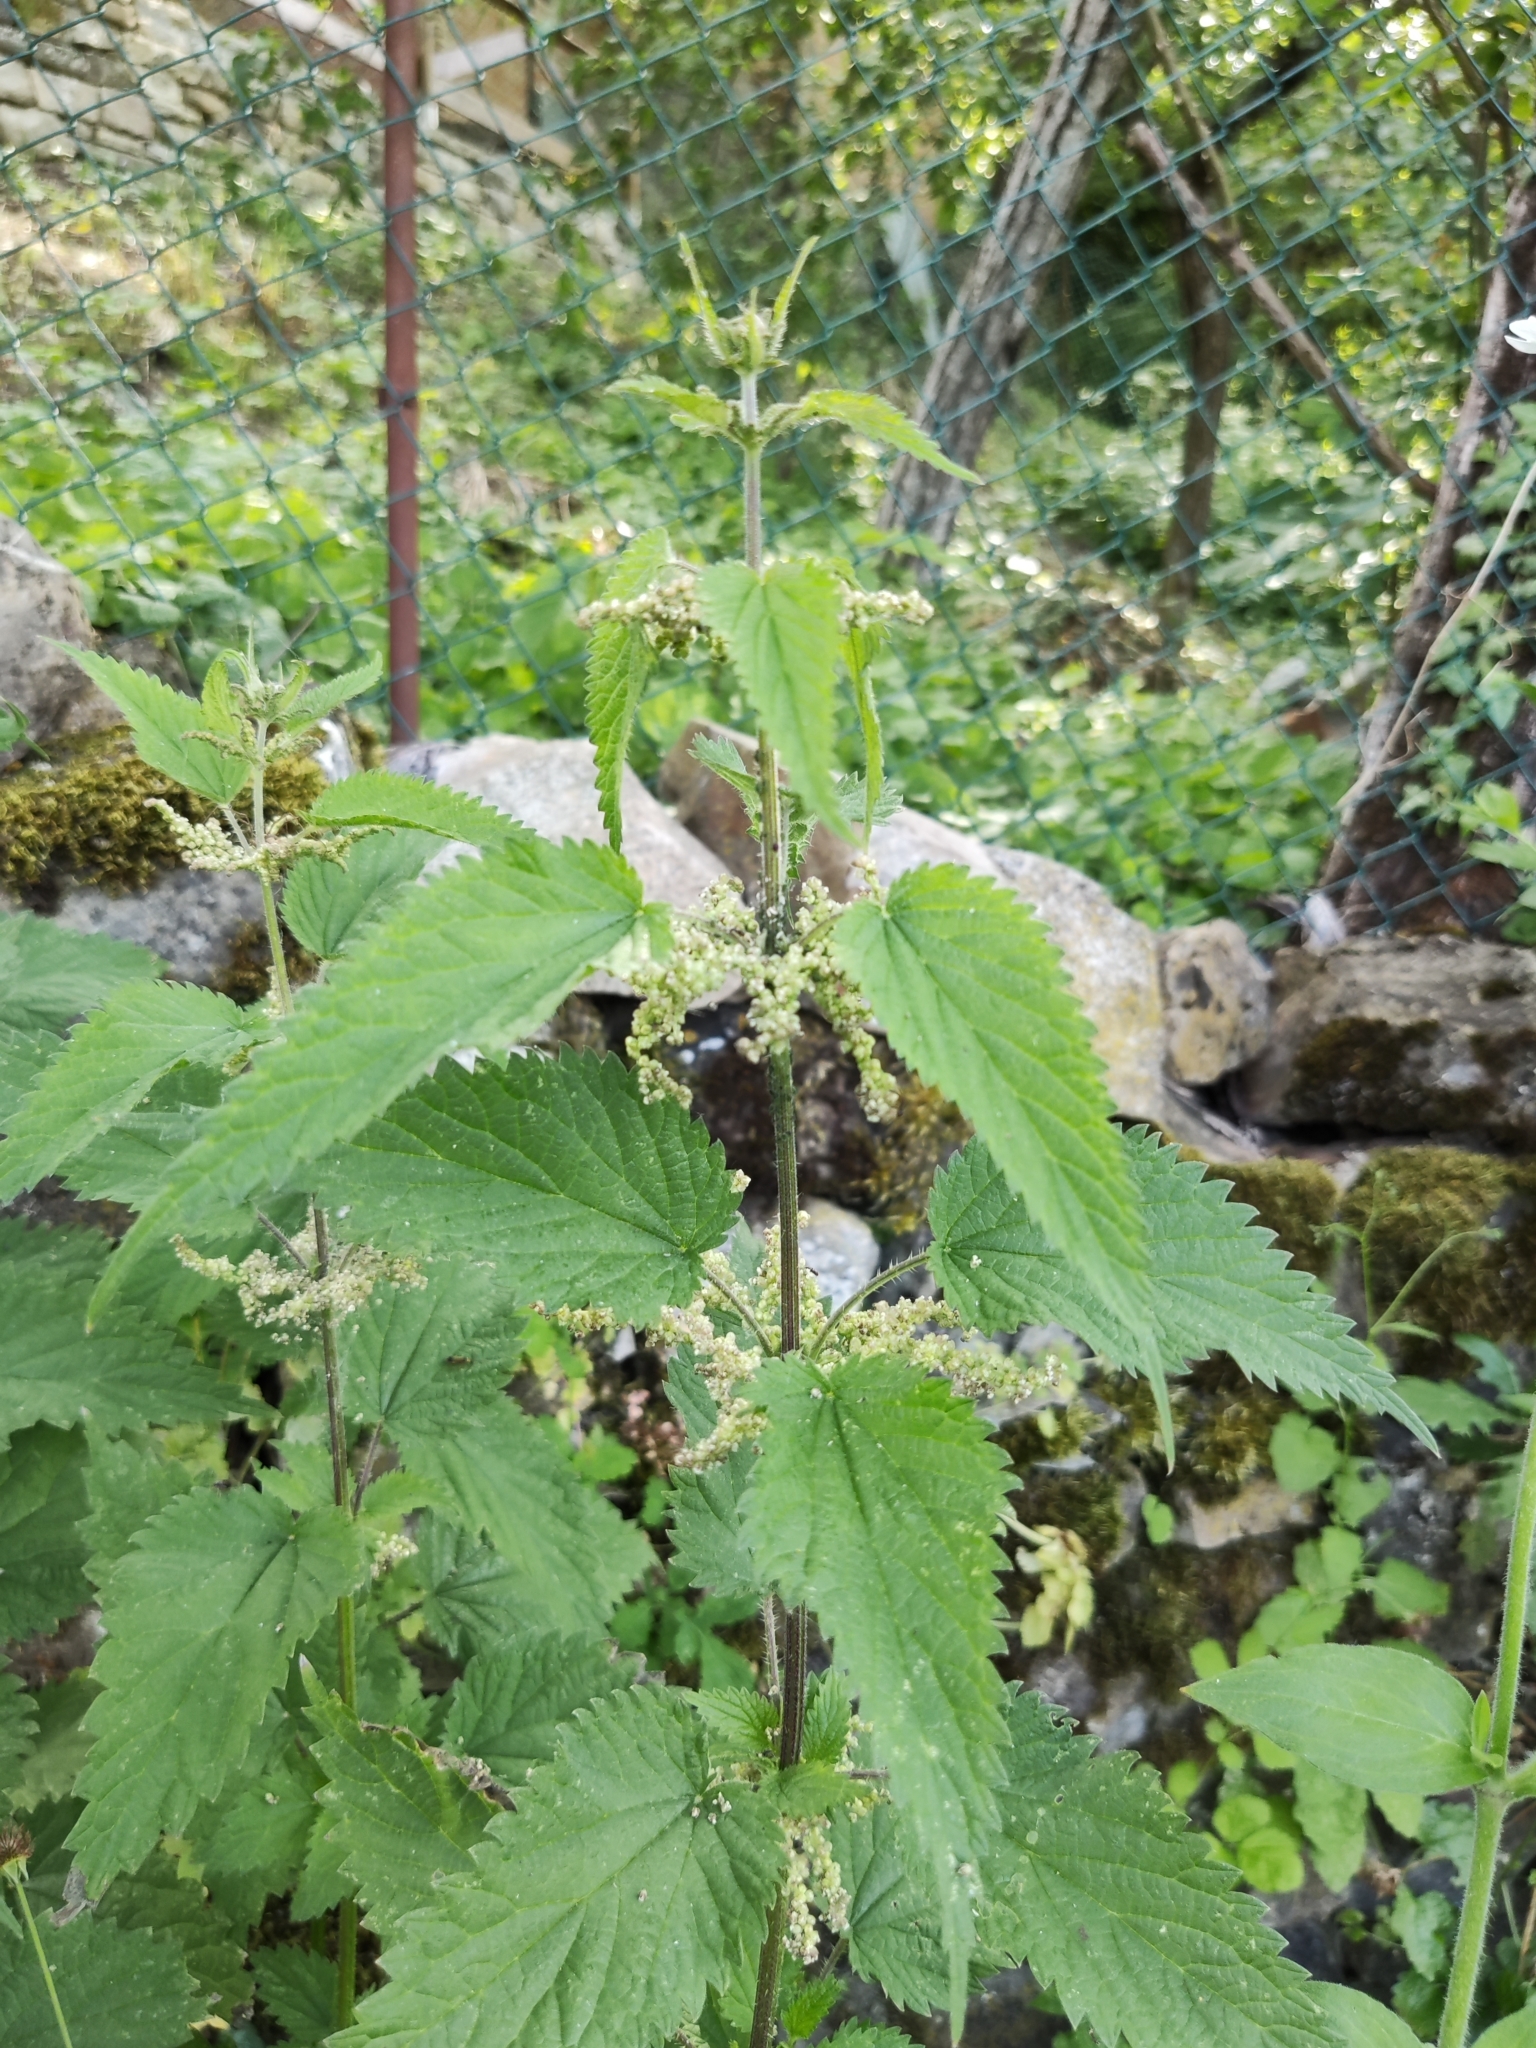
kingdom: Plantae
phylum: Tracheophyta
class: Magnoliopsida
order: Rosales
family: Urticaceae
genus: Urtica
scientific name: Urtica dioica
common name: Common nettle
